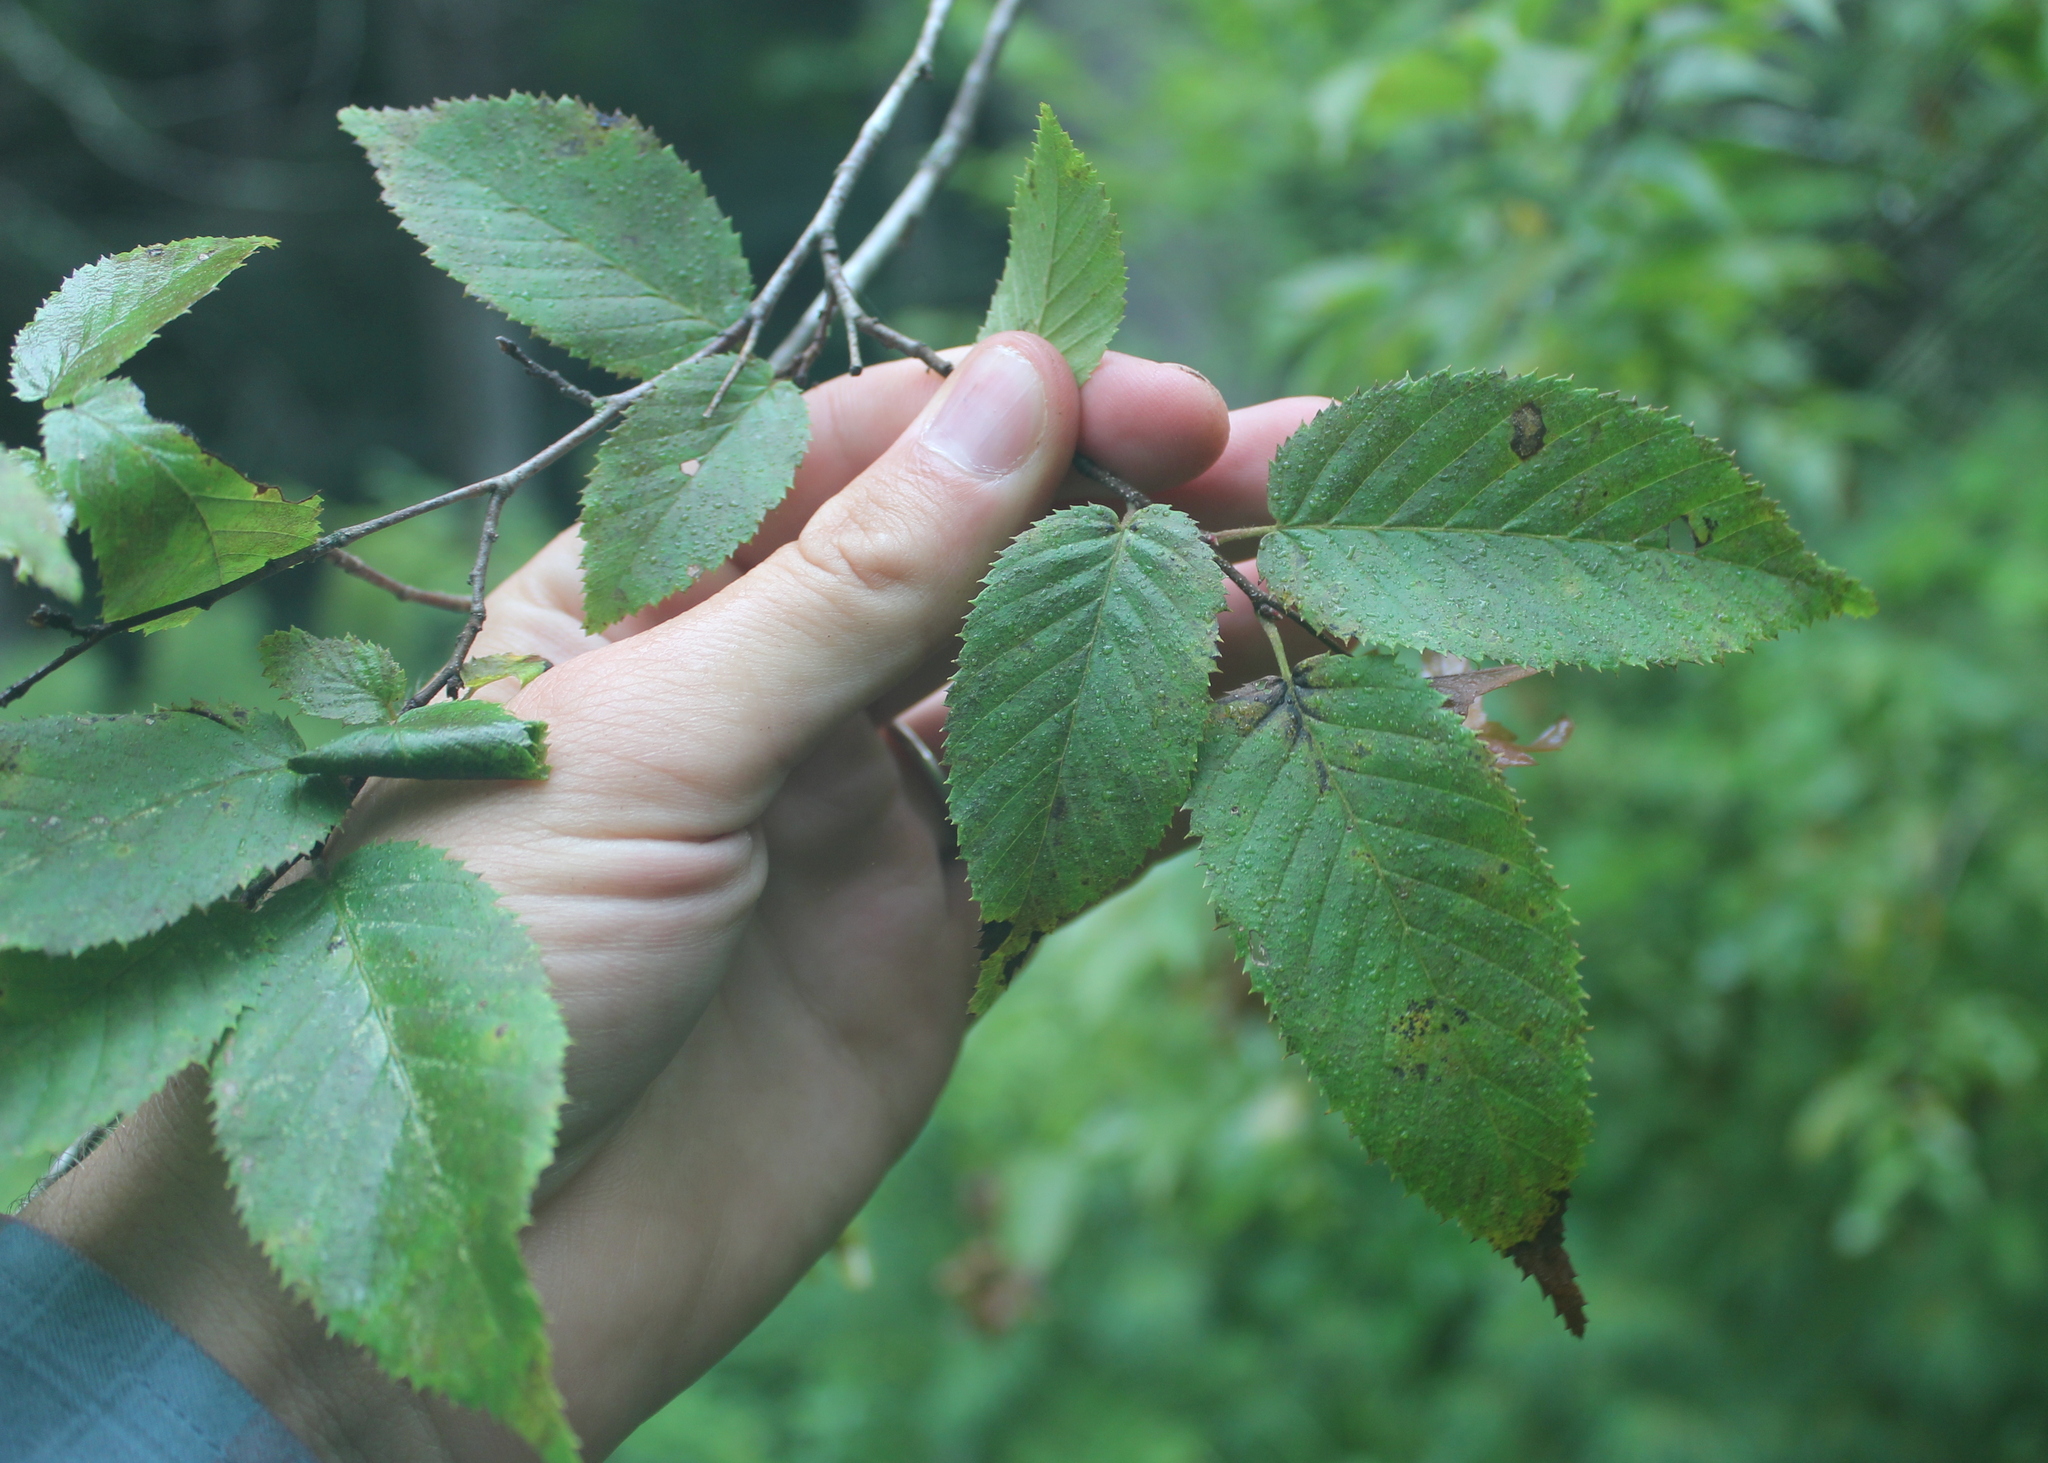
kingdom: Plantae
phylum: Tracheophyta
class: Magnoliopsida
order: Fagales
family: Betulaceae
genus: Carpinus
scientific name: Carpinus caroliniana
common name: American hornbeam
